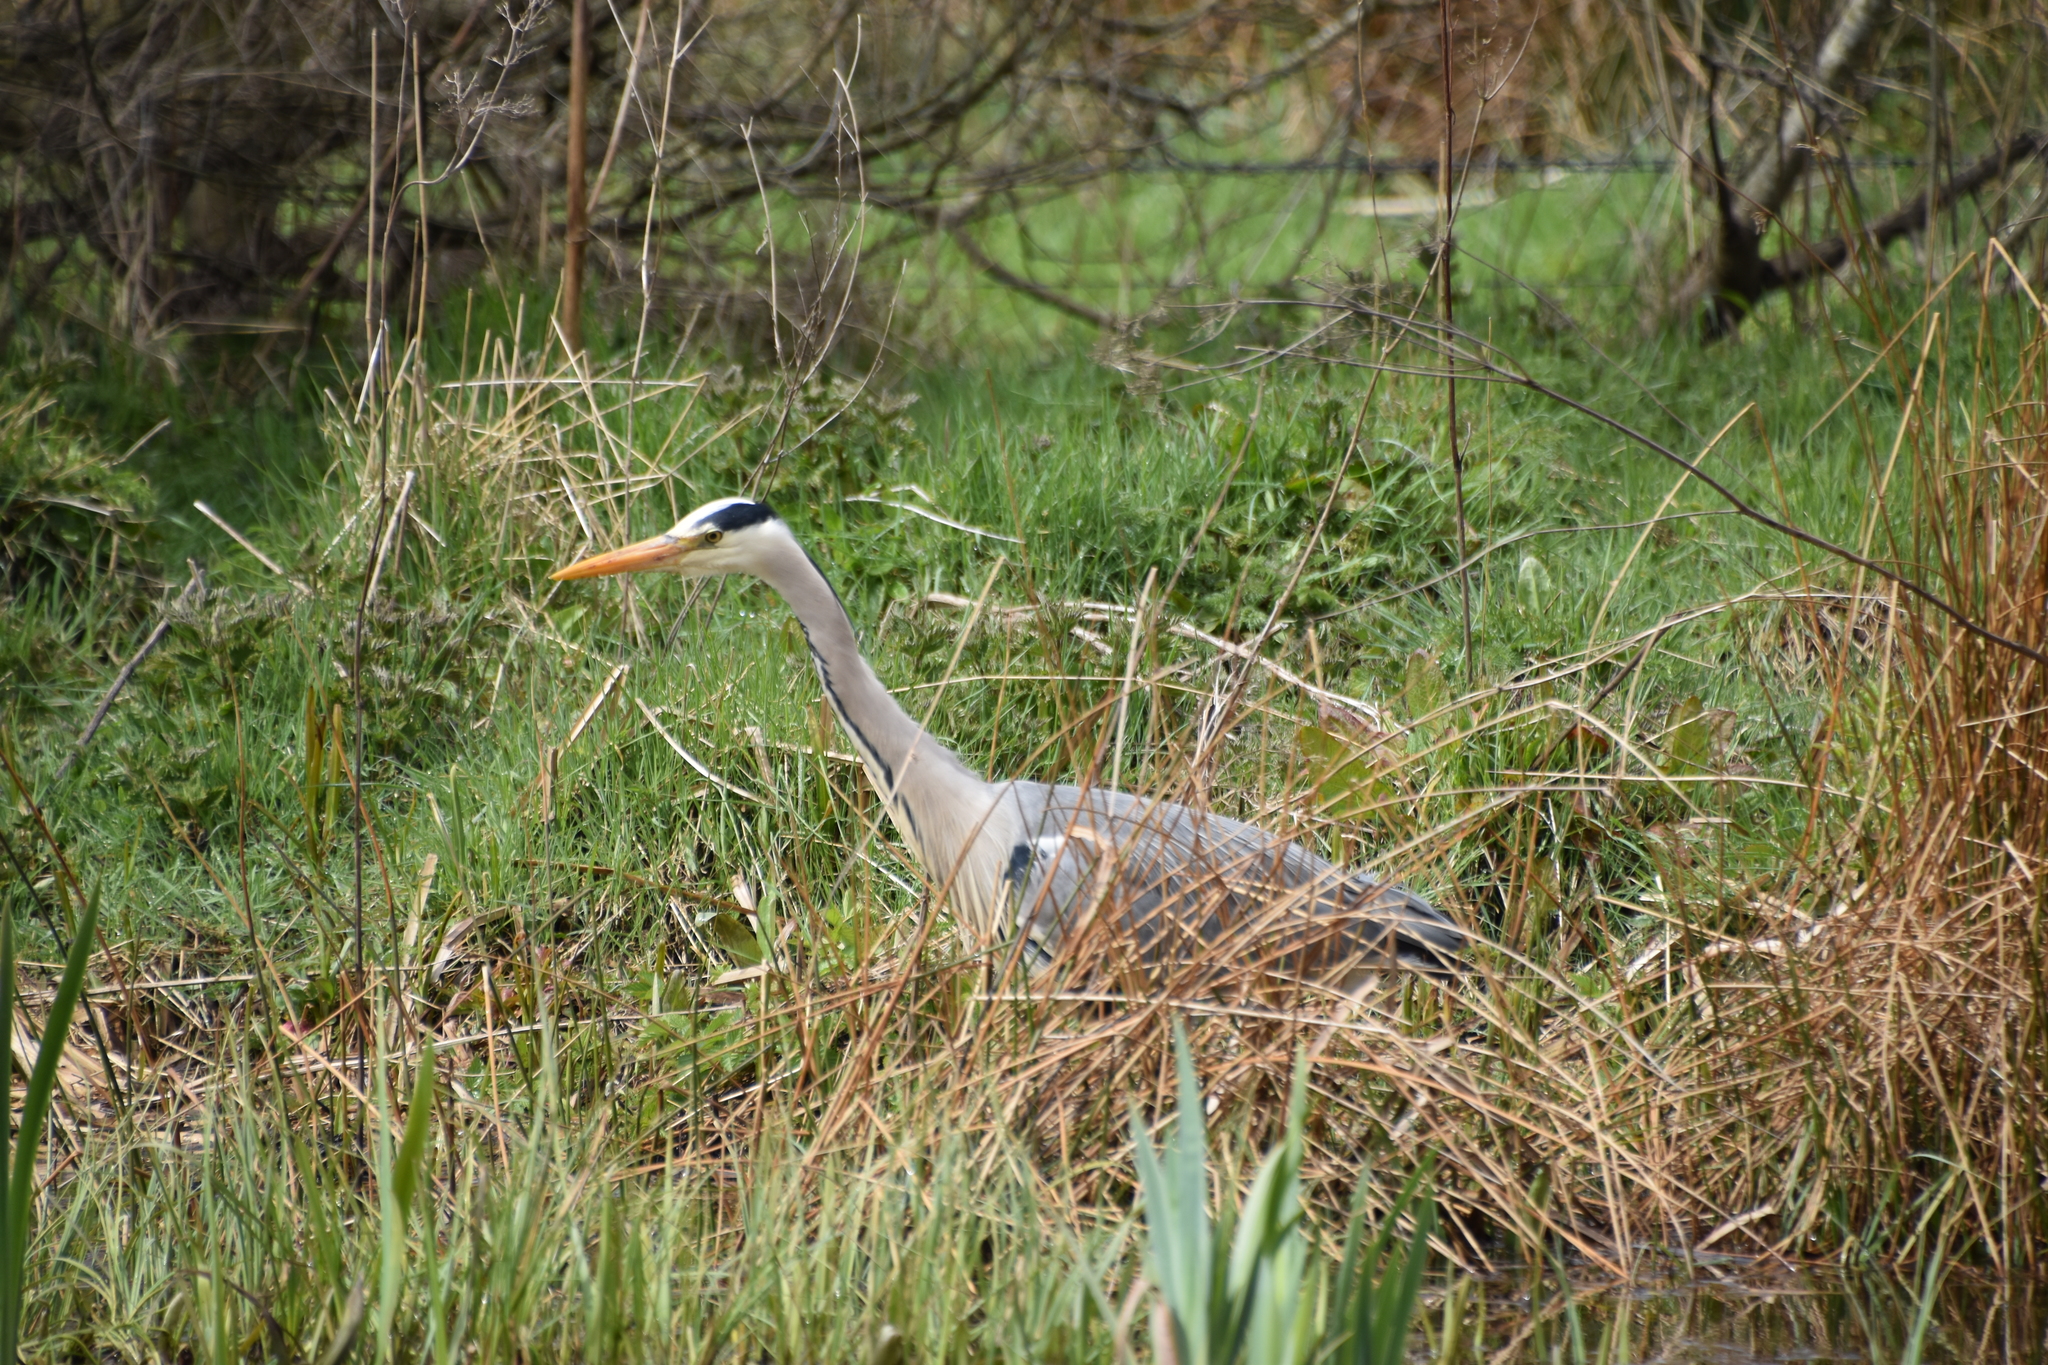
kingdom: Animalia
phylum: Chordata
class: Aves
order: Pelecaniformes
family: Ardeidae
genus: Ardea
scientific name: Ardea cinerea
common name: Grey heron
